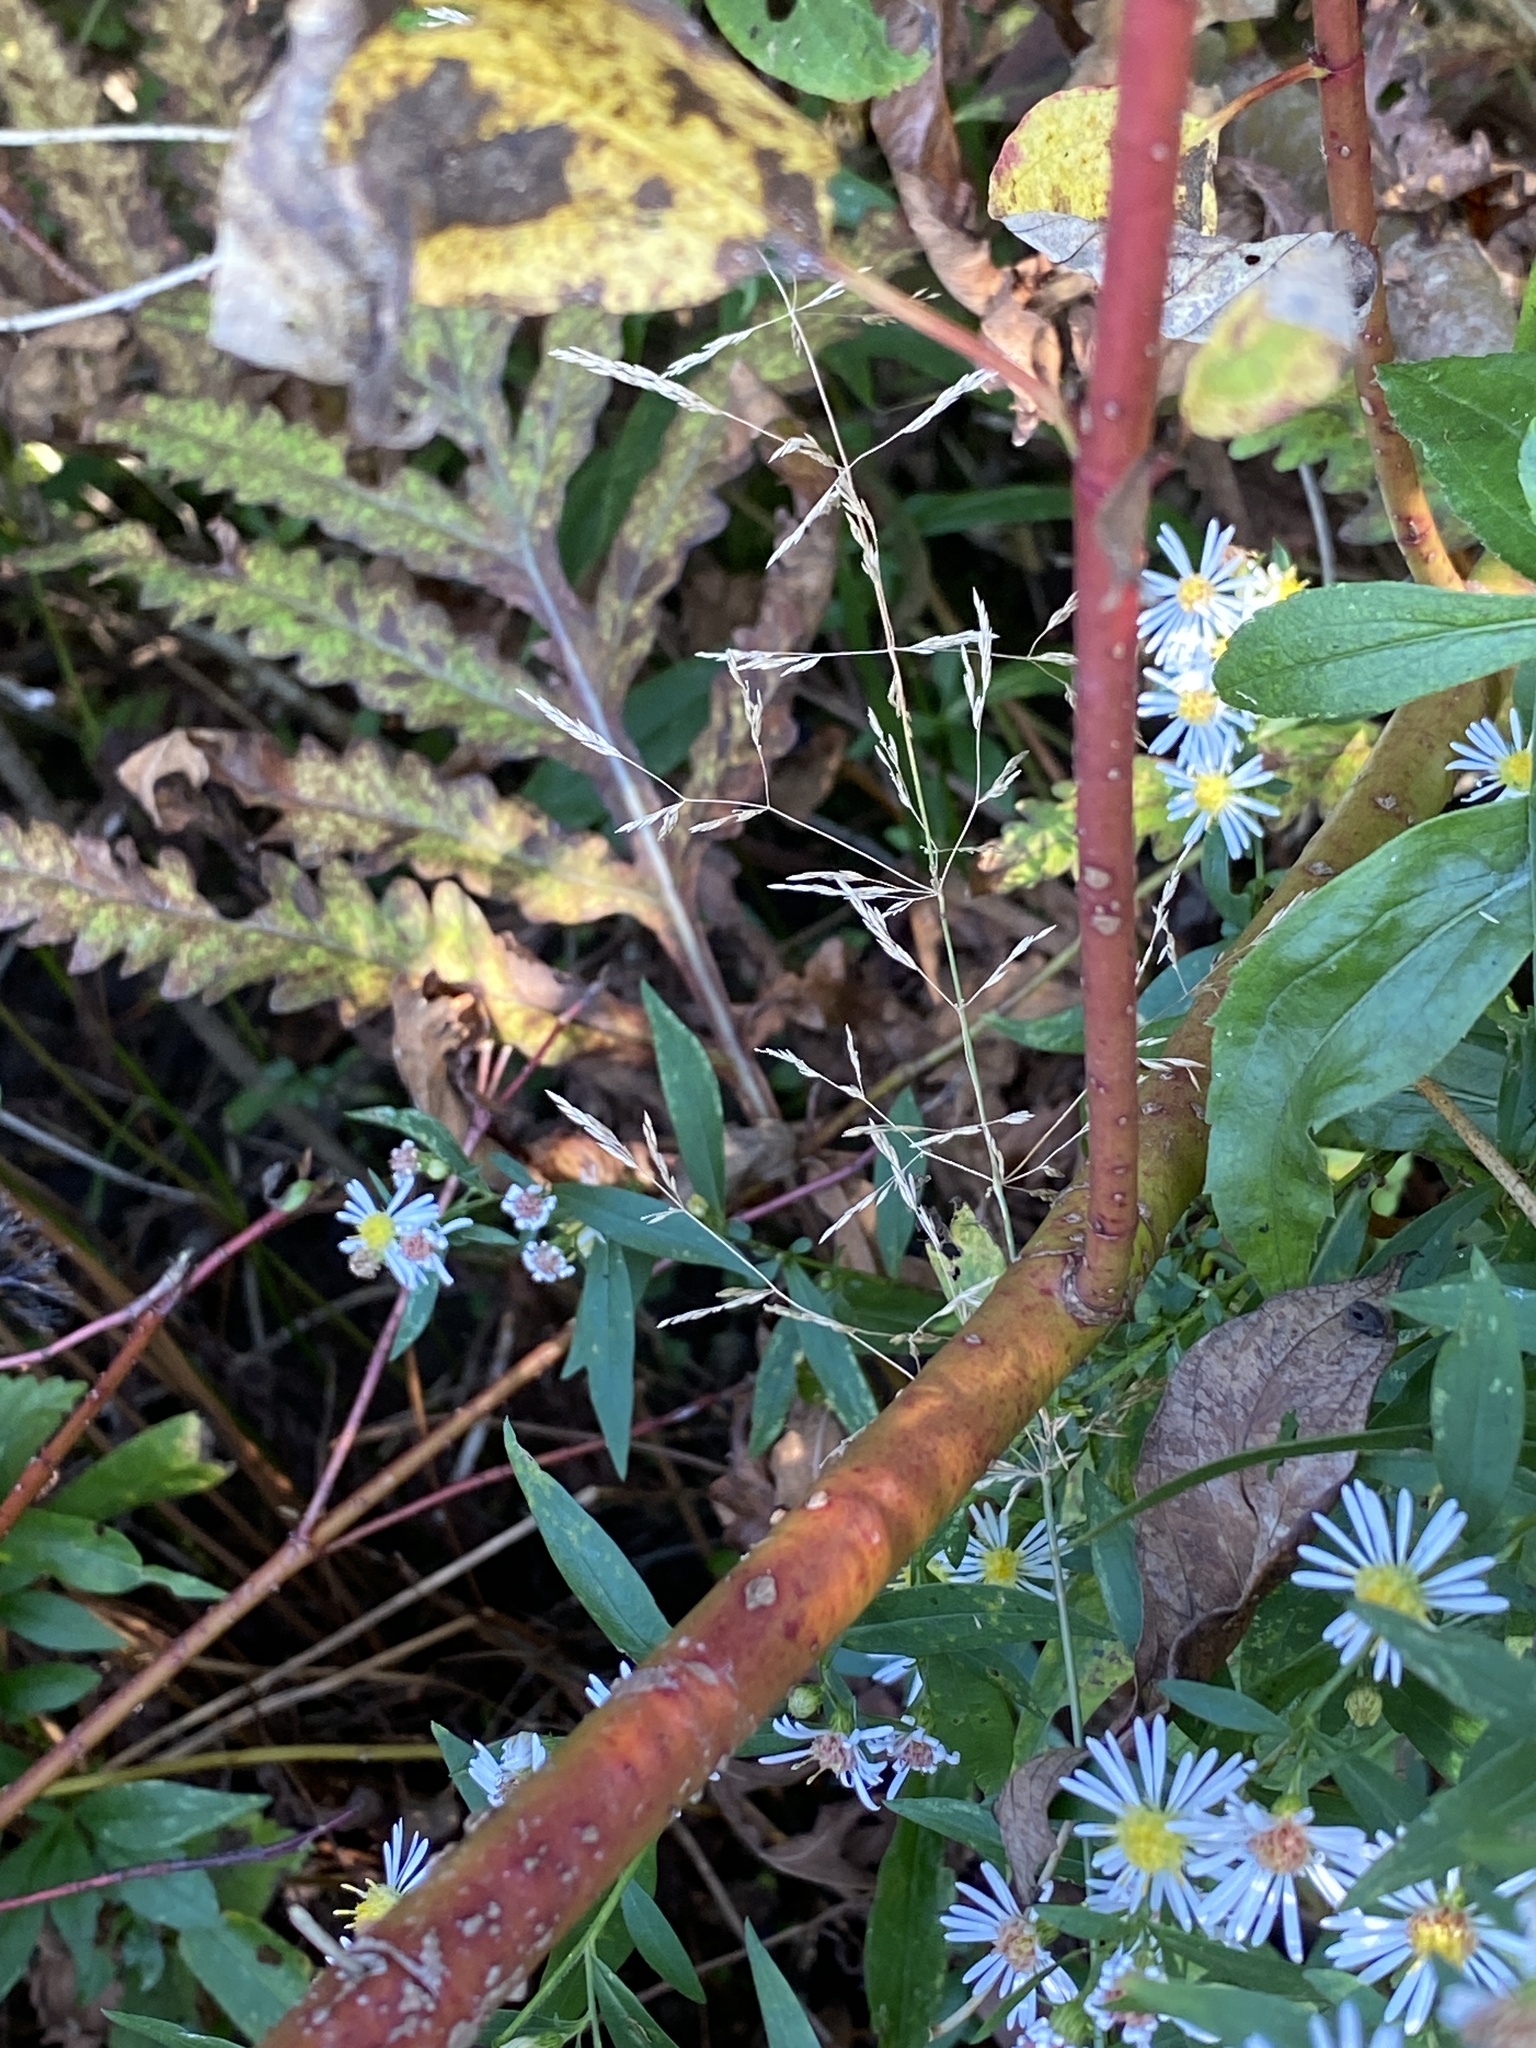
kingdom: Plantae
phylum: Tracheophyta
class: Magnoliopsida
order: Cornales
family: Cornaceae
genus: Cornus
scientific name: Cornus sericea
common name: Red-osier dogwood
